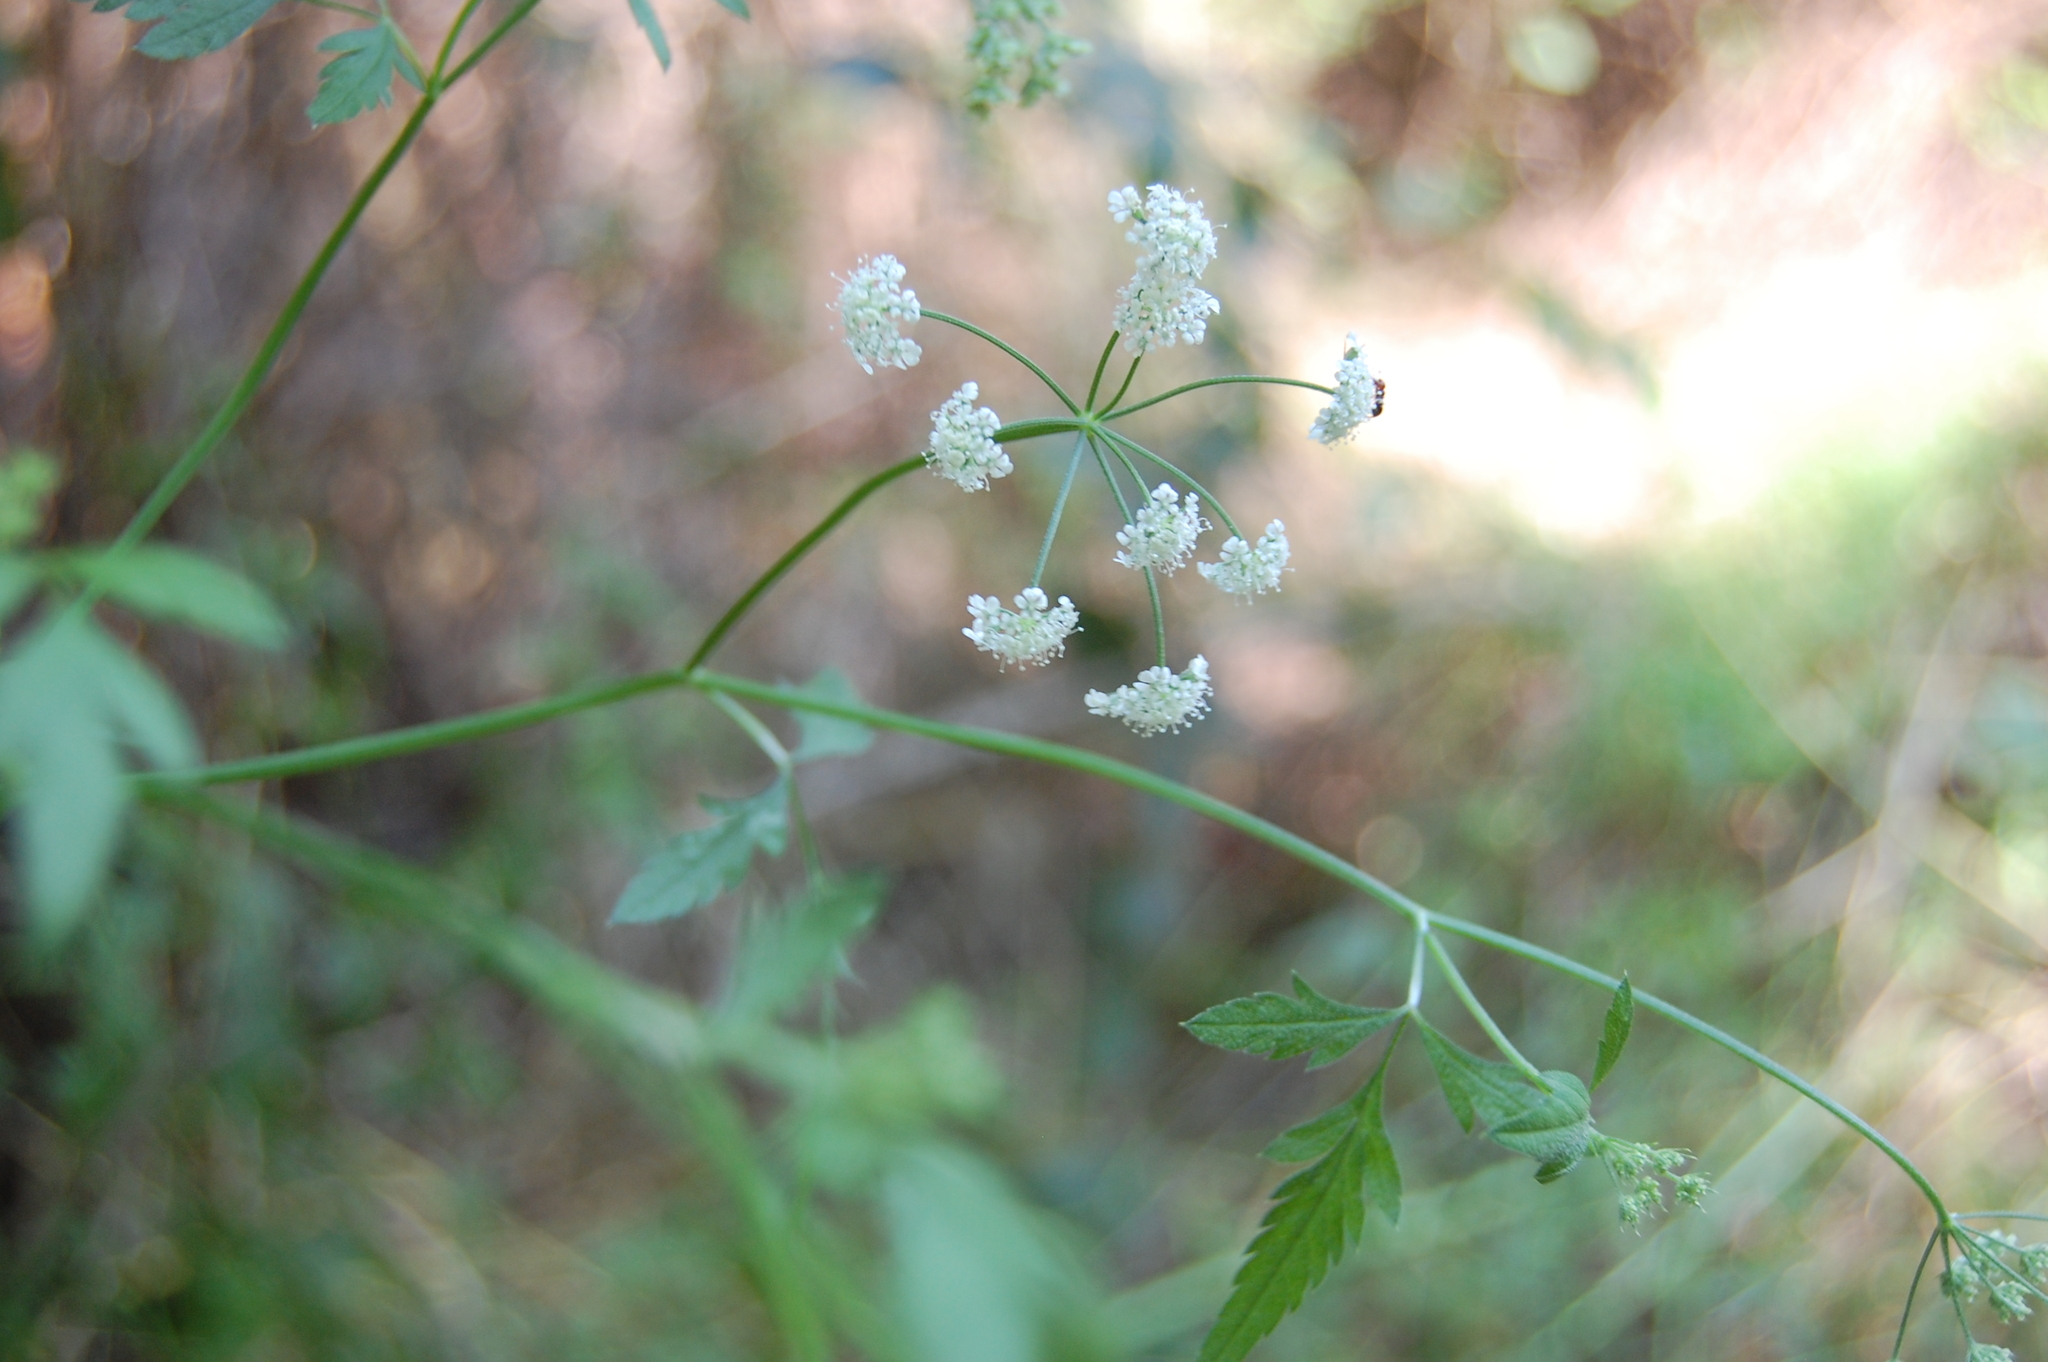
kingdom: Plantae
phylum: Tracheophyta
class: Magnoliopsida
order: Apiales
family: Apiaceae
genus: Torilis
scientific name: Torilis arvensis
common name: Spreading hedge-parsley
